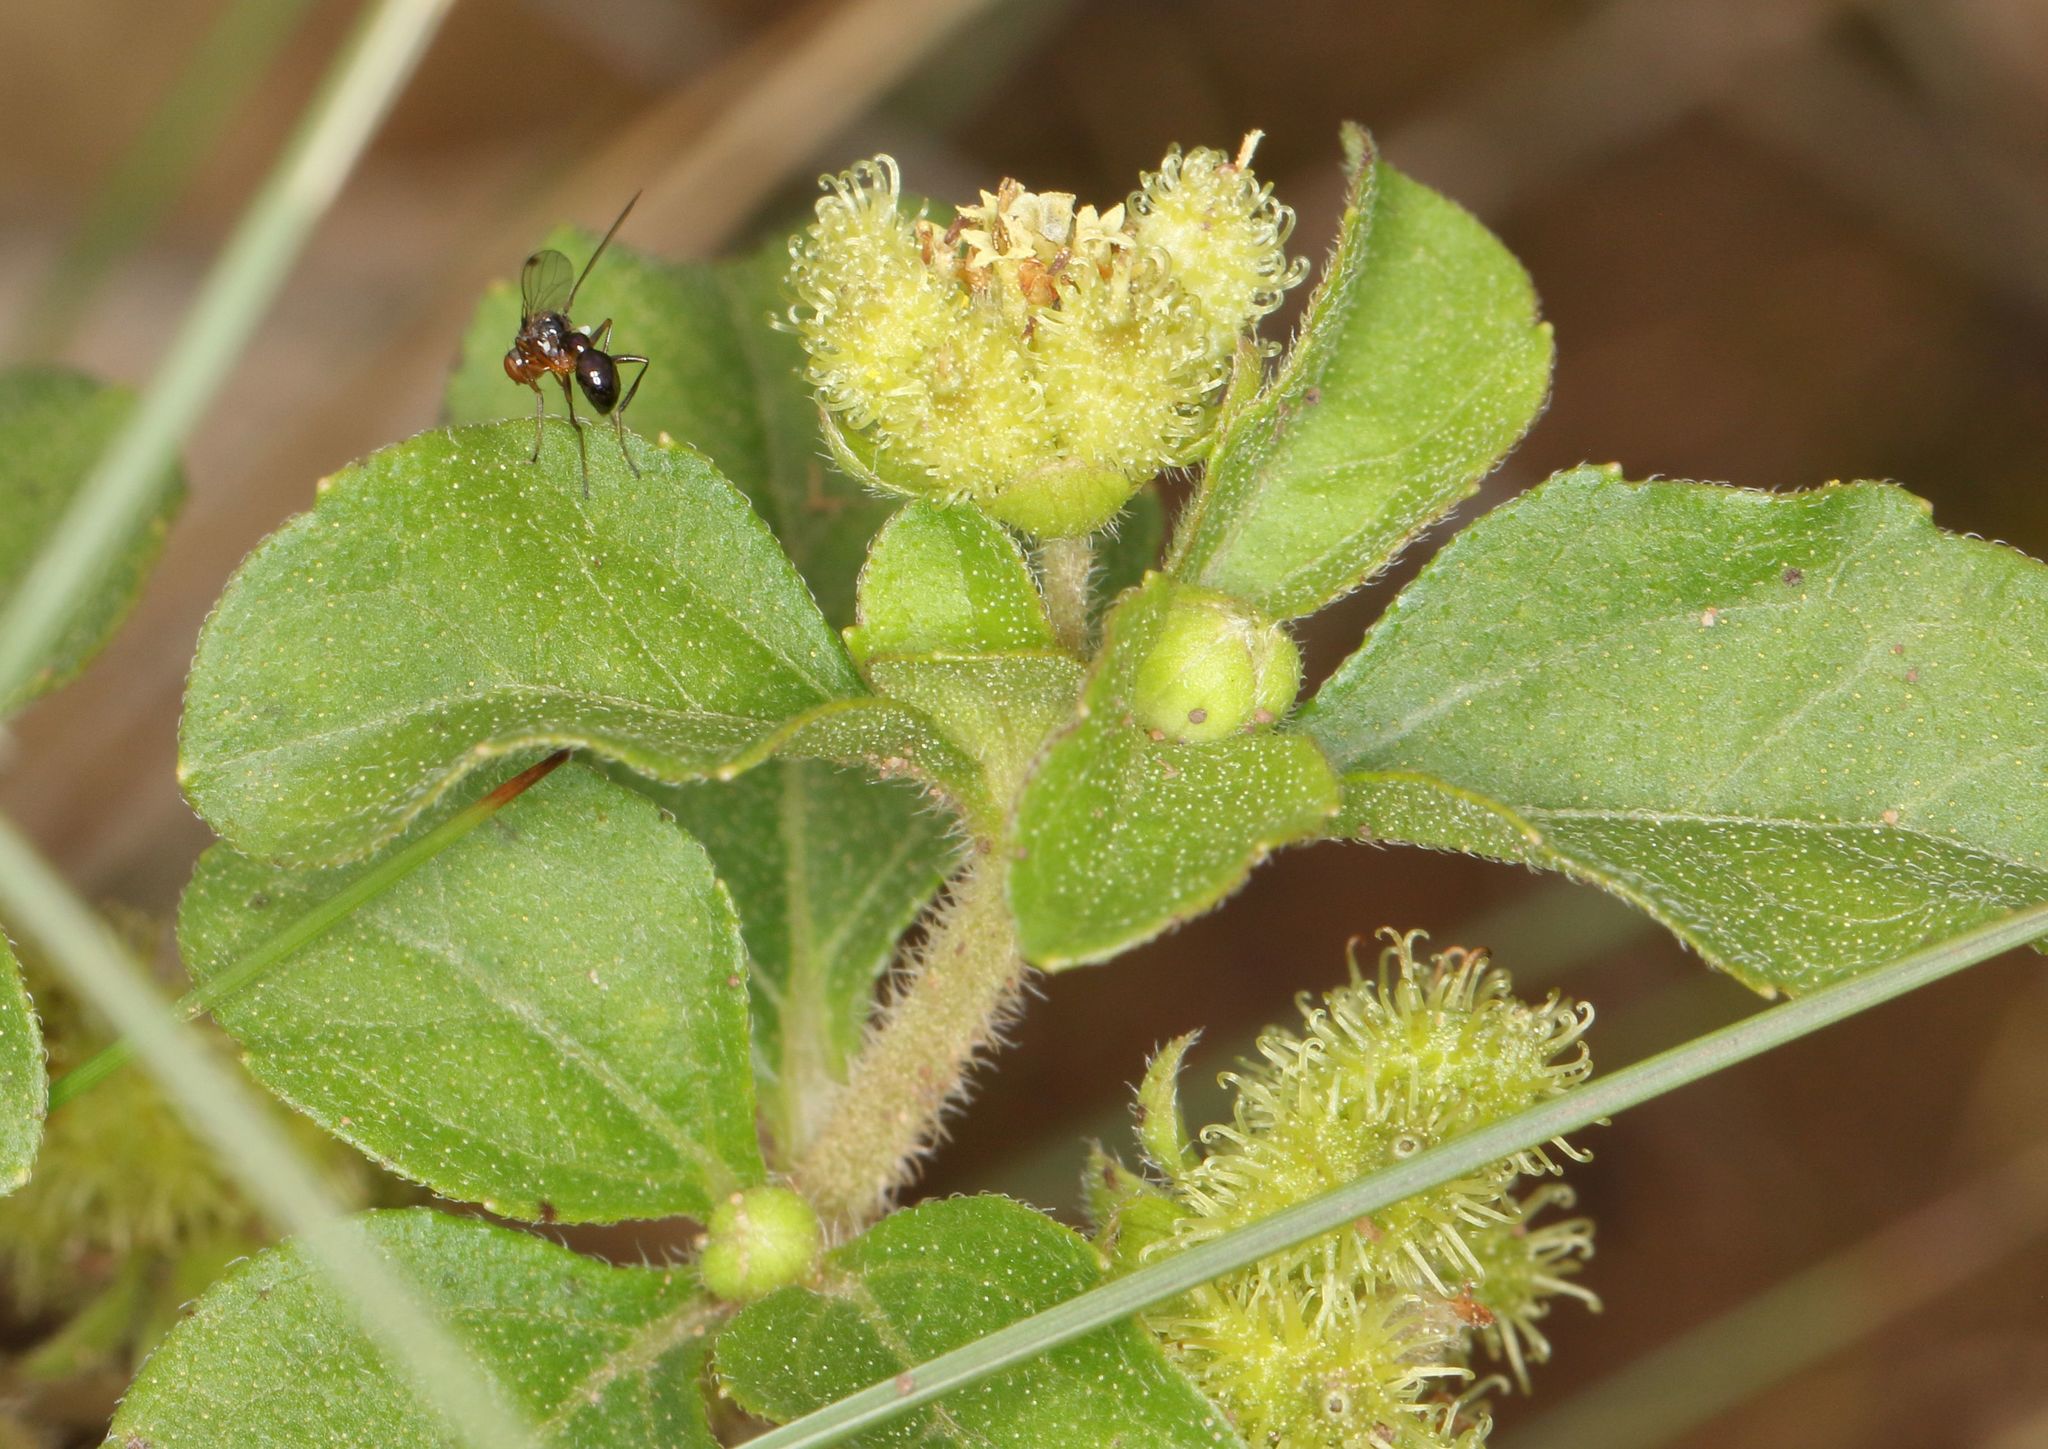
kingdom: Plantae
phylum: Tracheophyta
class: Magnoliopsida
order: Asterales
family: Asteraceae
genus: Acanthospermum
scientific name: Acanthospermum australe
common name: Paraguayan starbur
